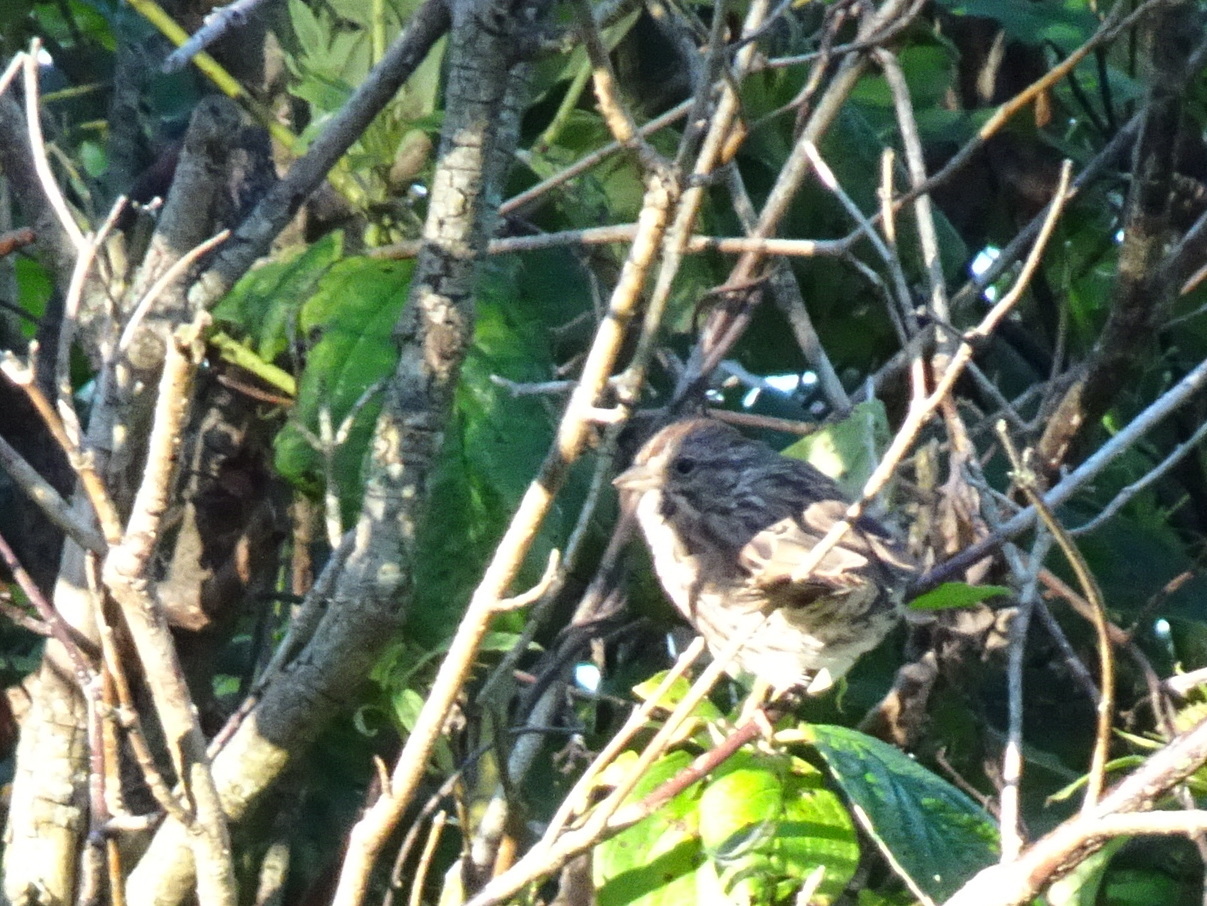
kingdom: Animalia
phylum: Chordata
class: Aves
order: Passeriformes
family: Passerellidae
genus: Melospiza
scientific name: Melospiza melodia
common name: Song sparrow
